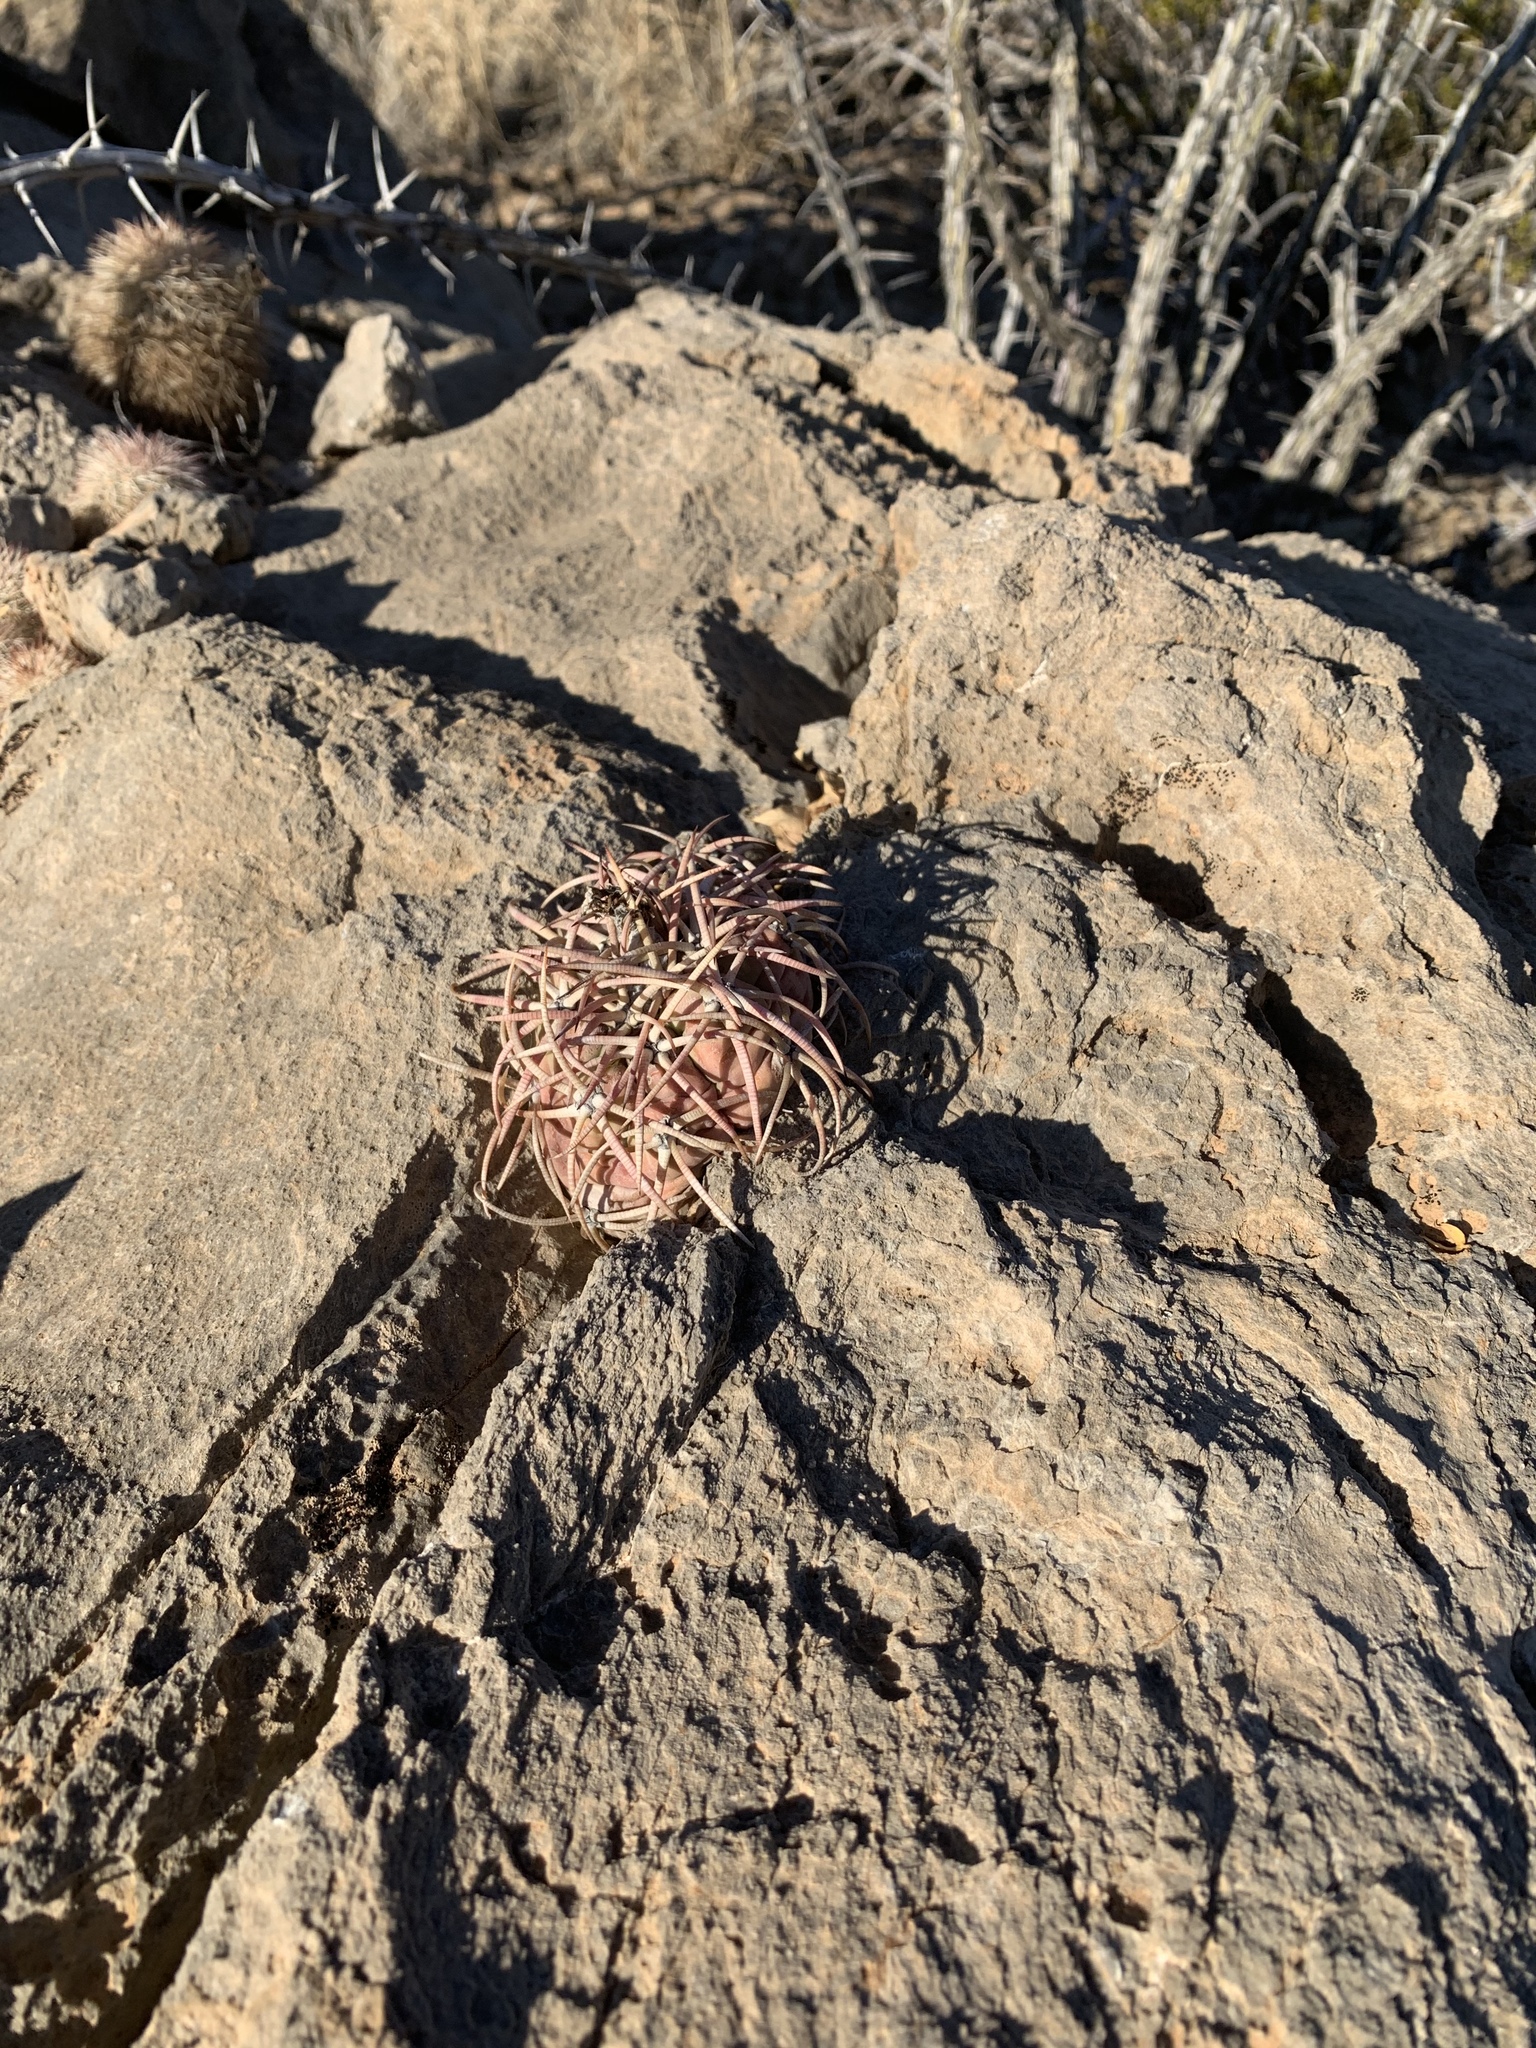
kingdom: Plantae
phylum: Tracheophyta
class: Magnoliopsida
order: Caryophyllales
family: Cactaceae
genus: Echinocactus
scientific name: Echinocactus horizonthalonius
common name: Devilshead
